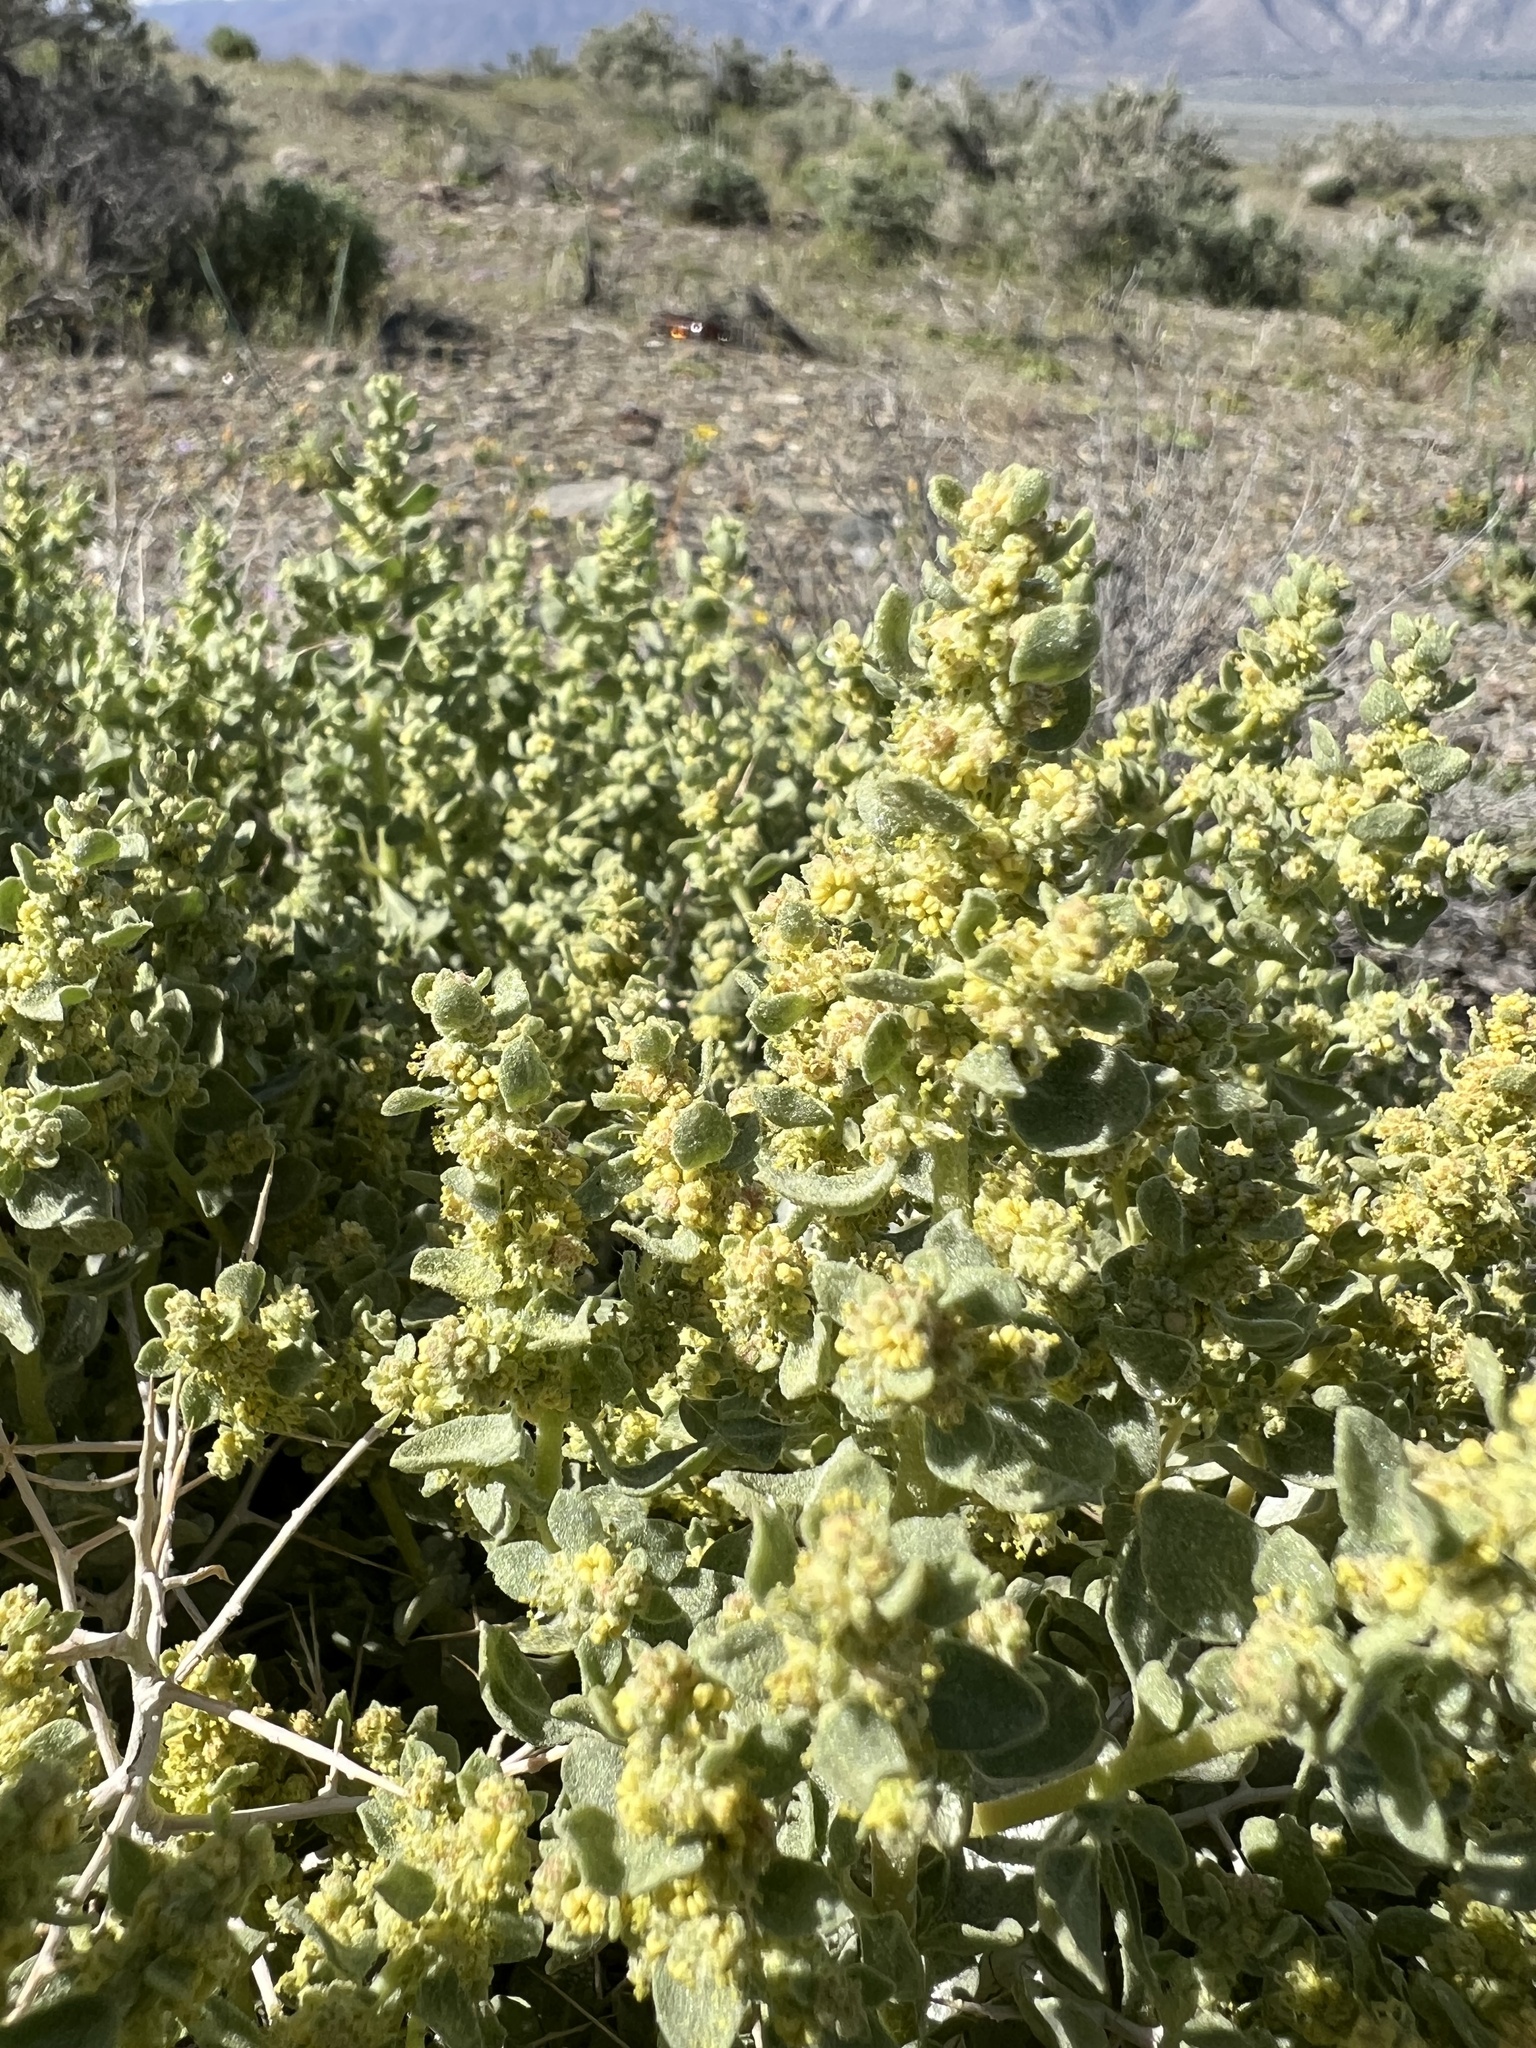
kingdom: Plantae
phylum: Tracheophyta
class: Magnoliopsida
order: Caryophyllales
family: Amaranthaceae
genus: Atriplex
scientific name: Atriplex confertifolia
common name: Shadscale
